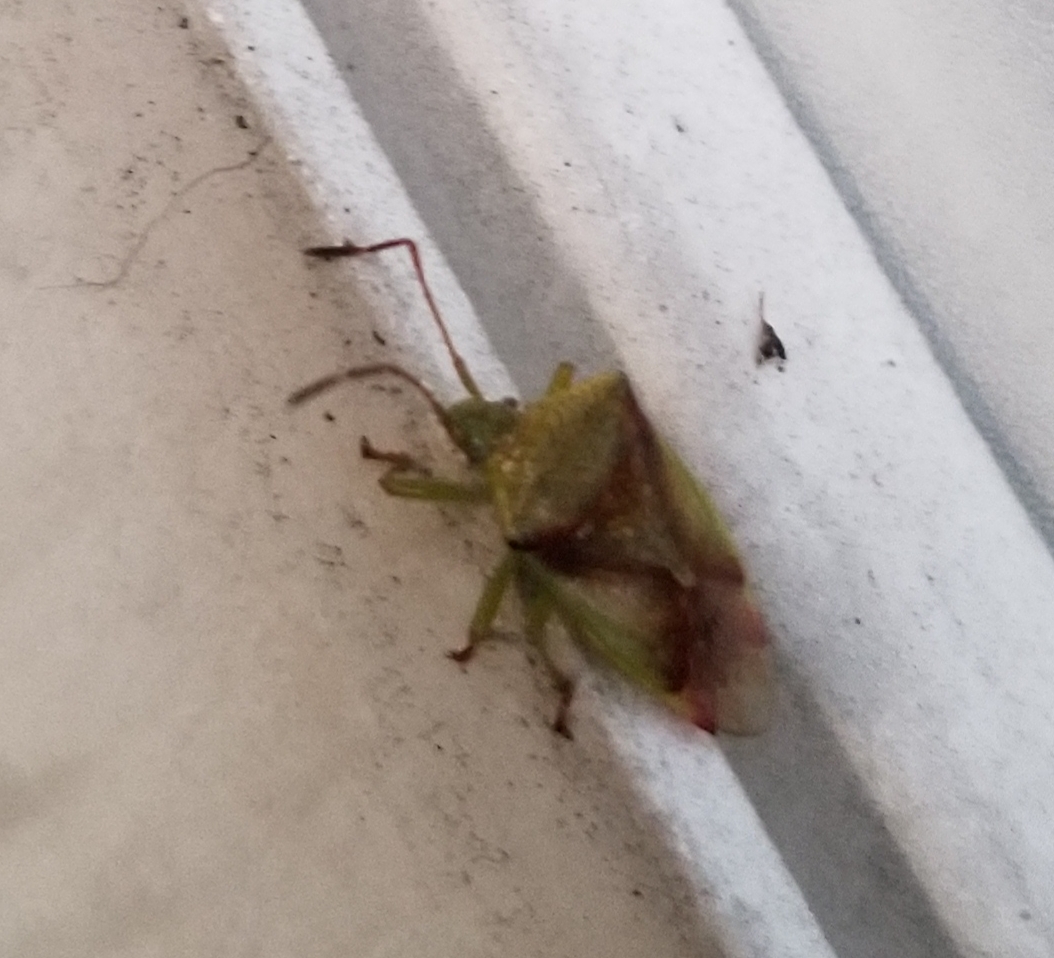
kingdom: Animalia
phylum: Arthropoda
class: Insecta
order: Hemiptera
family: Acanthosomatidae
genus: Elasmostethus
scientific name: Elasmostethus cruciatus
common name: Red-cross shield bug
